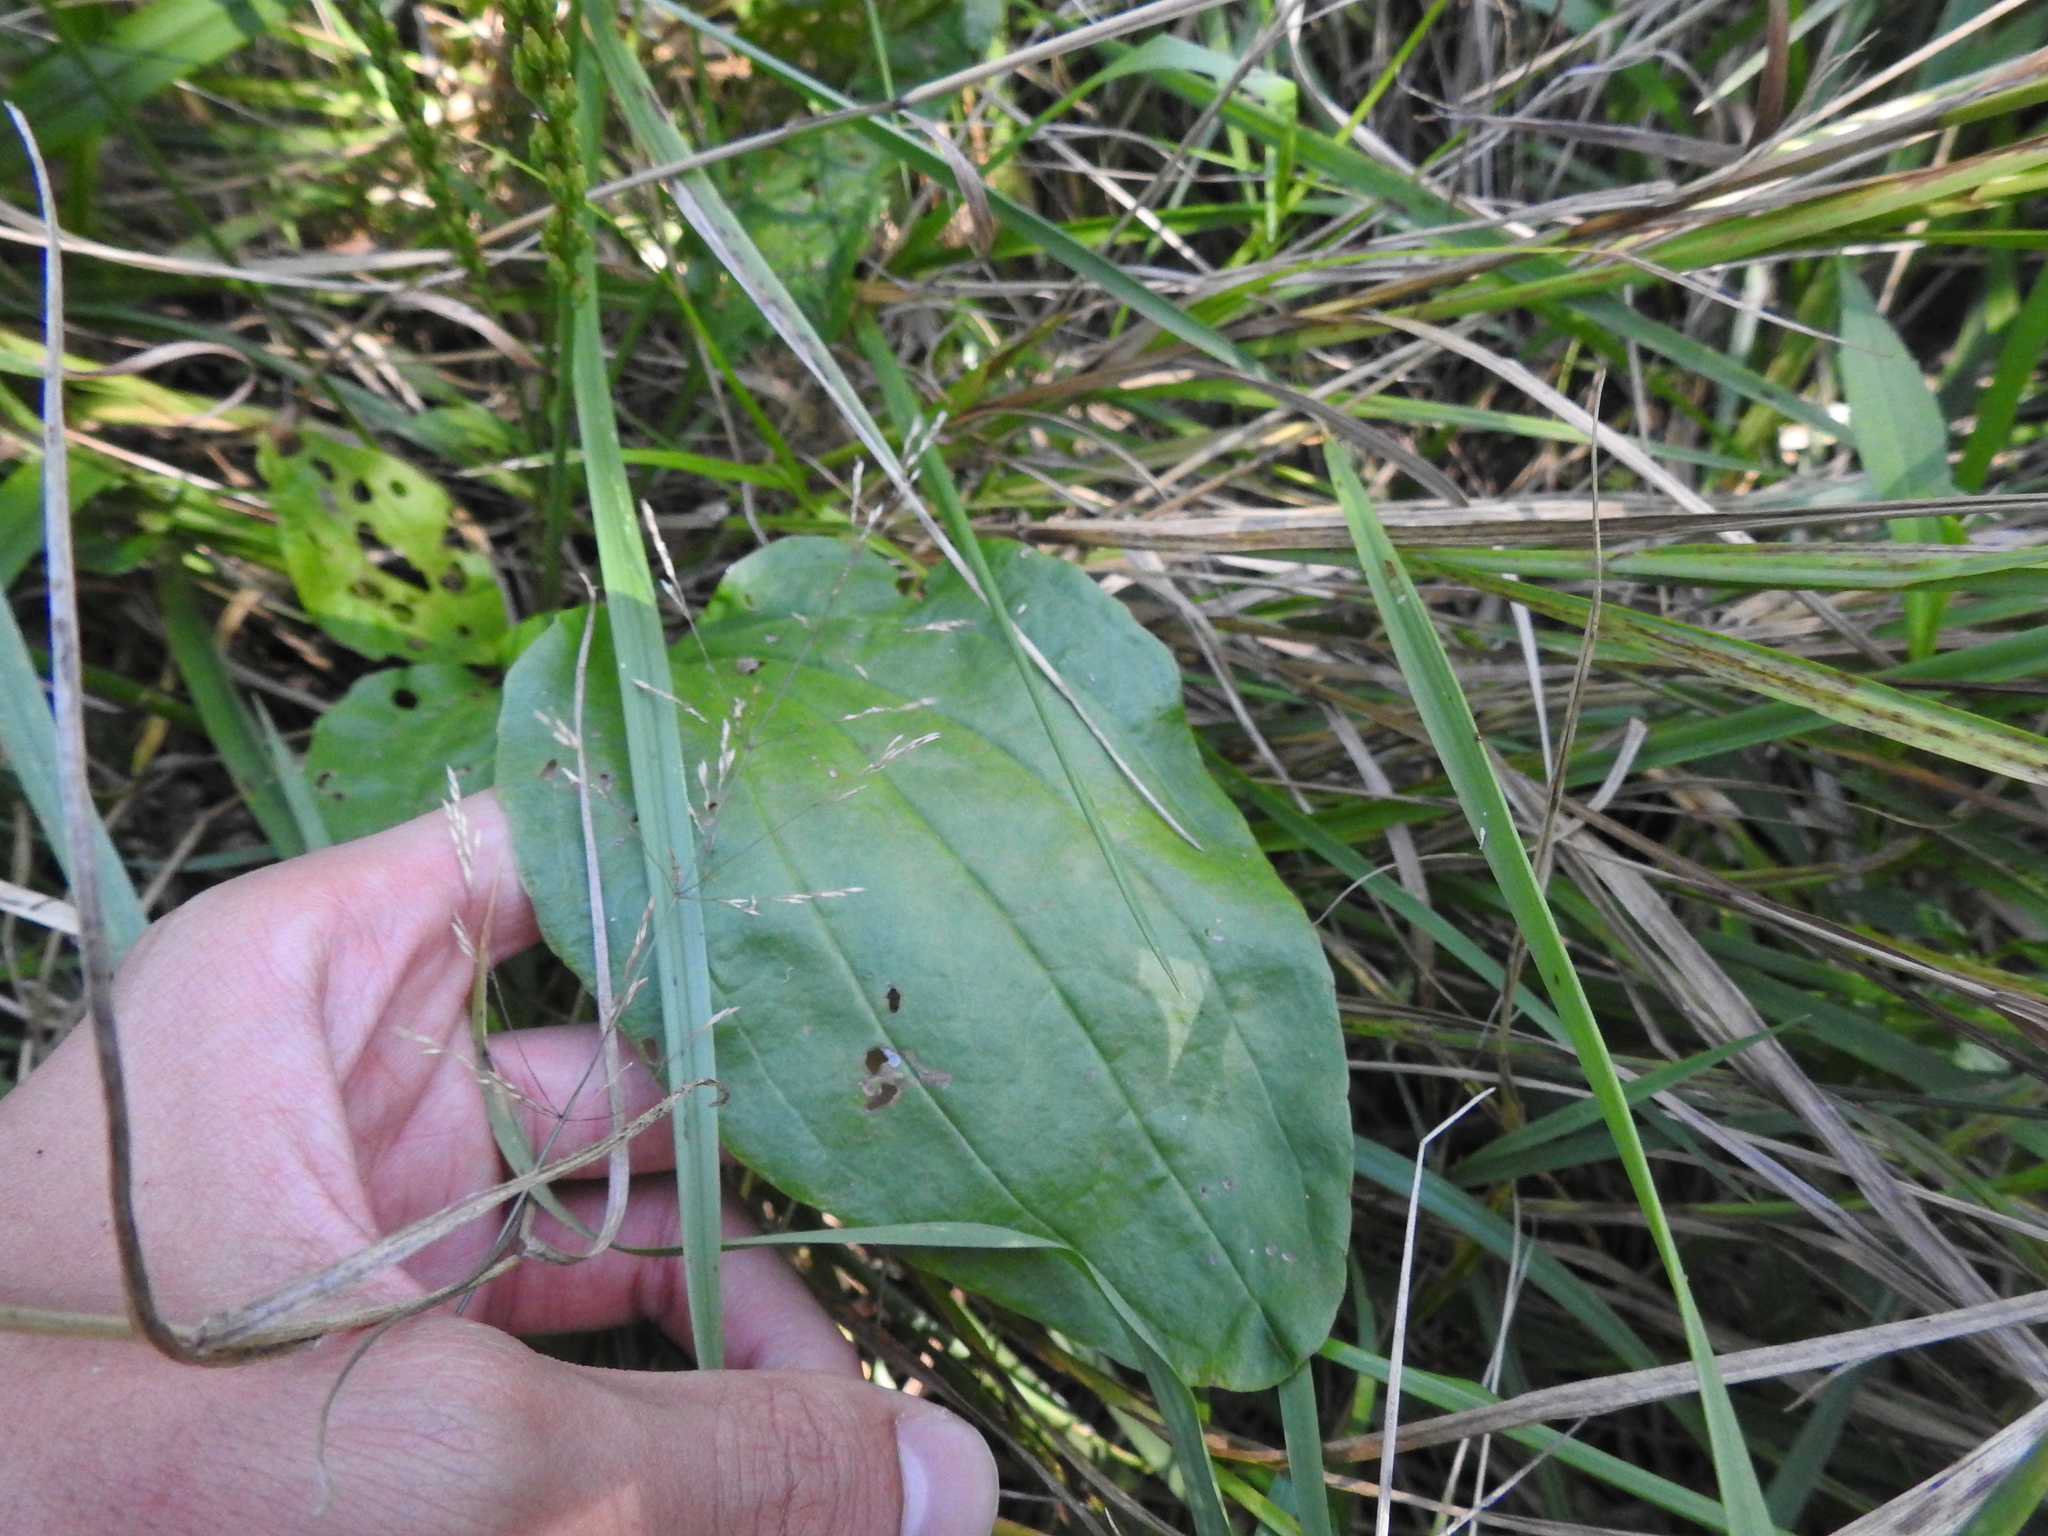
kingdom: Plantae
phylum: Tracheophyta
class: Magnoliopsida
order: Lamiales
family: Plantaginaceae
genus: Plantago
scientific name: Plantago rugelii
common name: American plantain
